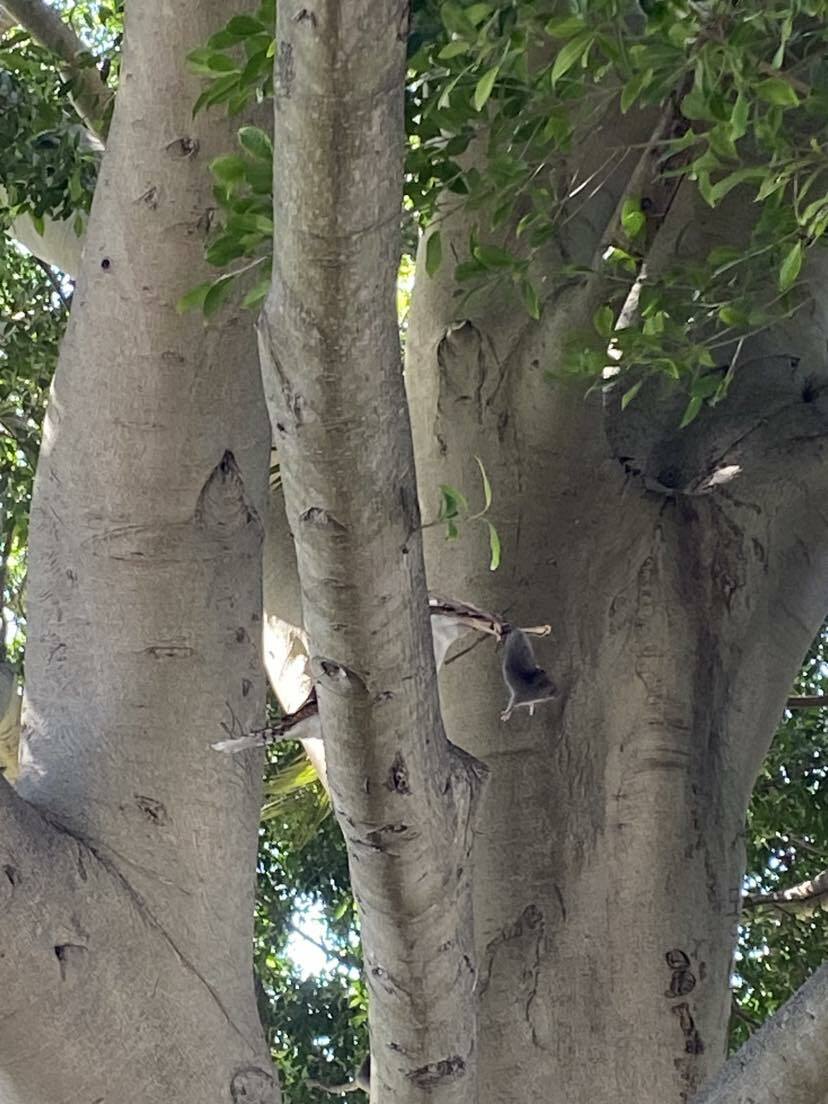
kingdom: Animalia
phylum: Chordata
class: Aves
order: Coraciiformes
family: Alcedinidae
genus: Dacelo
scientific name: Dacelo novaeguineae
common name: Laughing kookaburra
